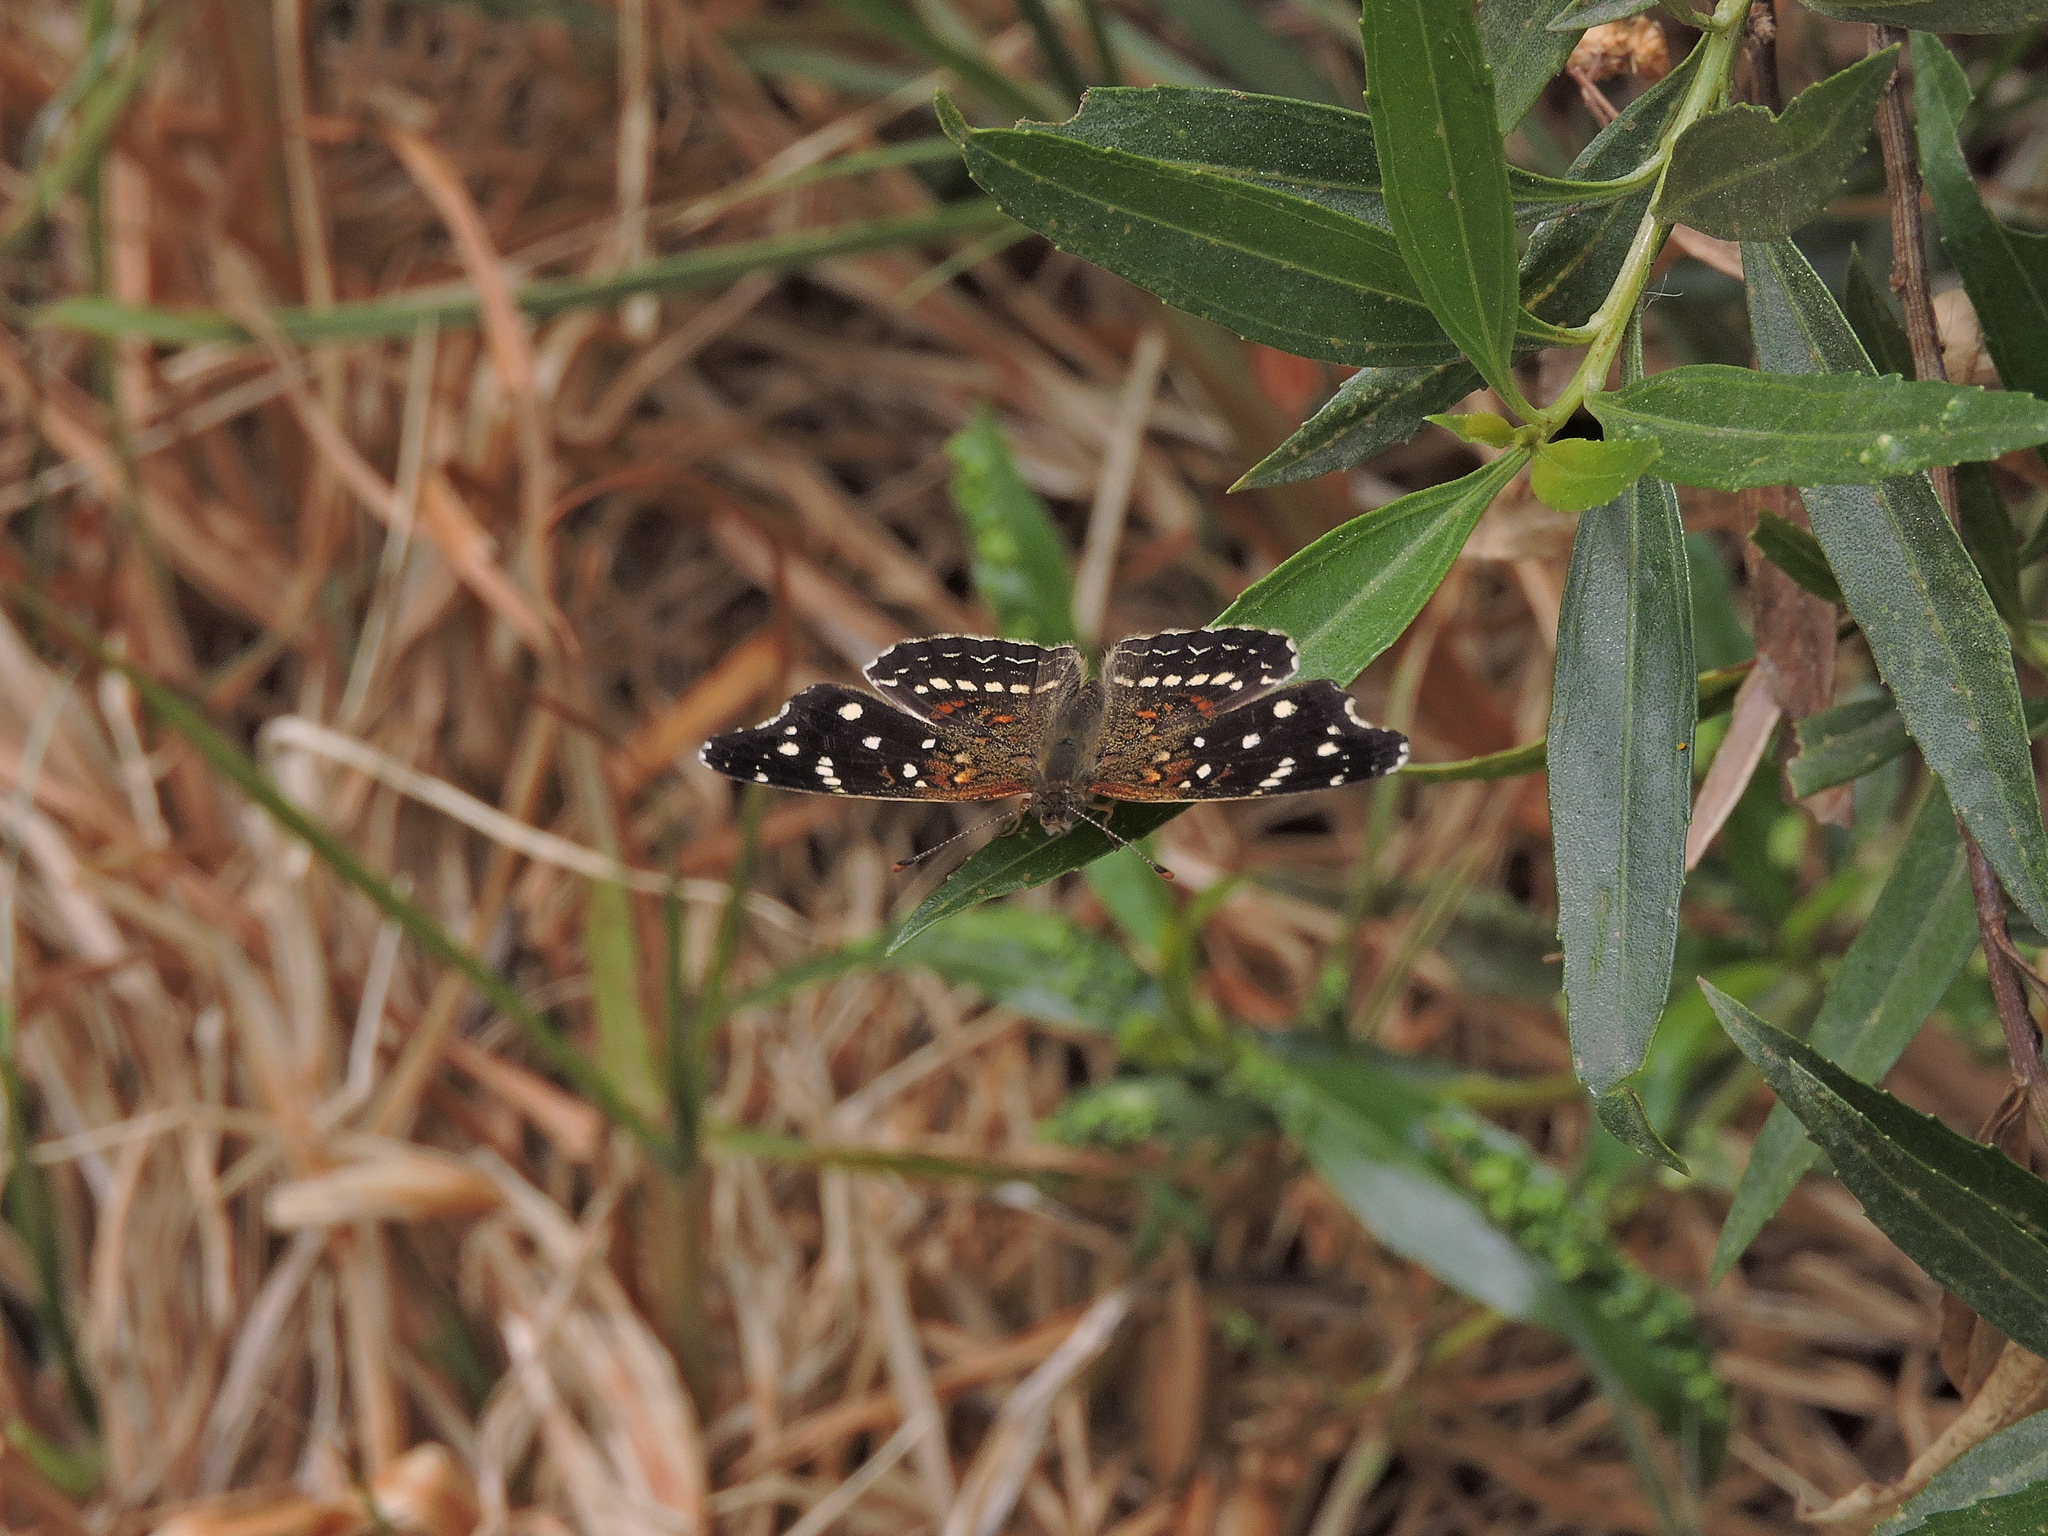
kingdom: Animalia
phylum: Arthropoda
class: Insecta
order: Lepidoptera
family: Nymphalidae
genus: Anthanassa
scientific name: Anthanassa texana
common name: Texan crescent
